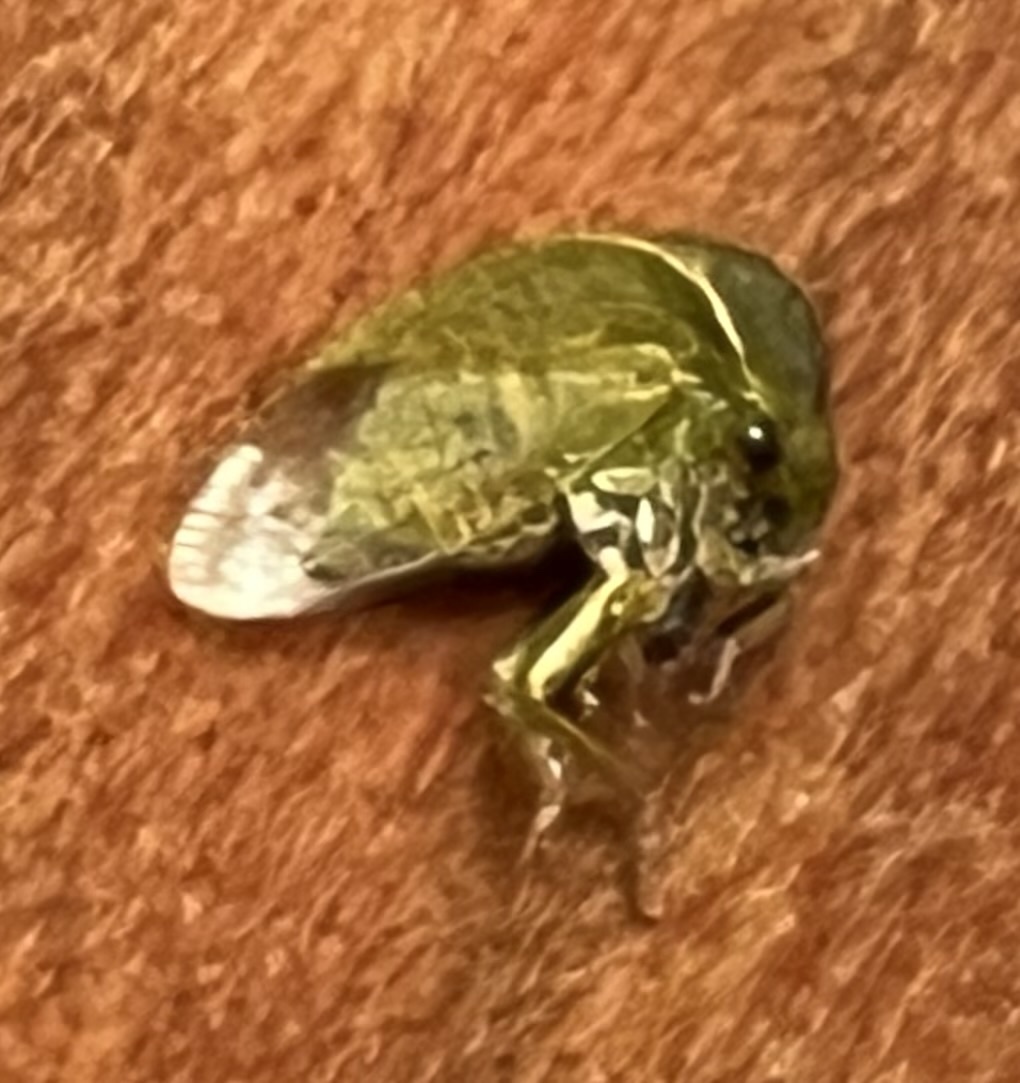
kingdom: Animalia
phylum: Arthropoda
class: Insecta
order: Hemiptera
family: Membracidae
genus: Spissistilus
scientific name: Spissistilus festina
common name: Membracid bug
